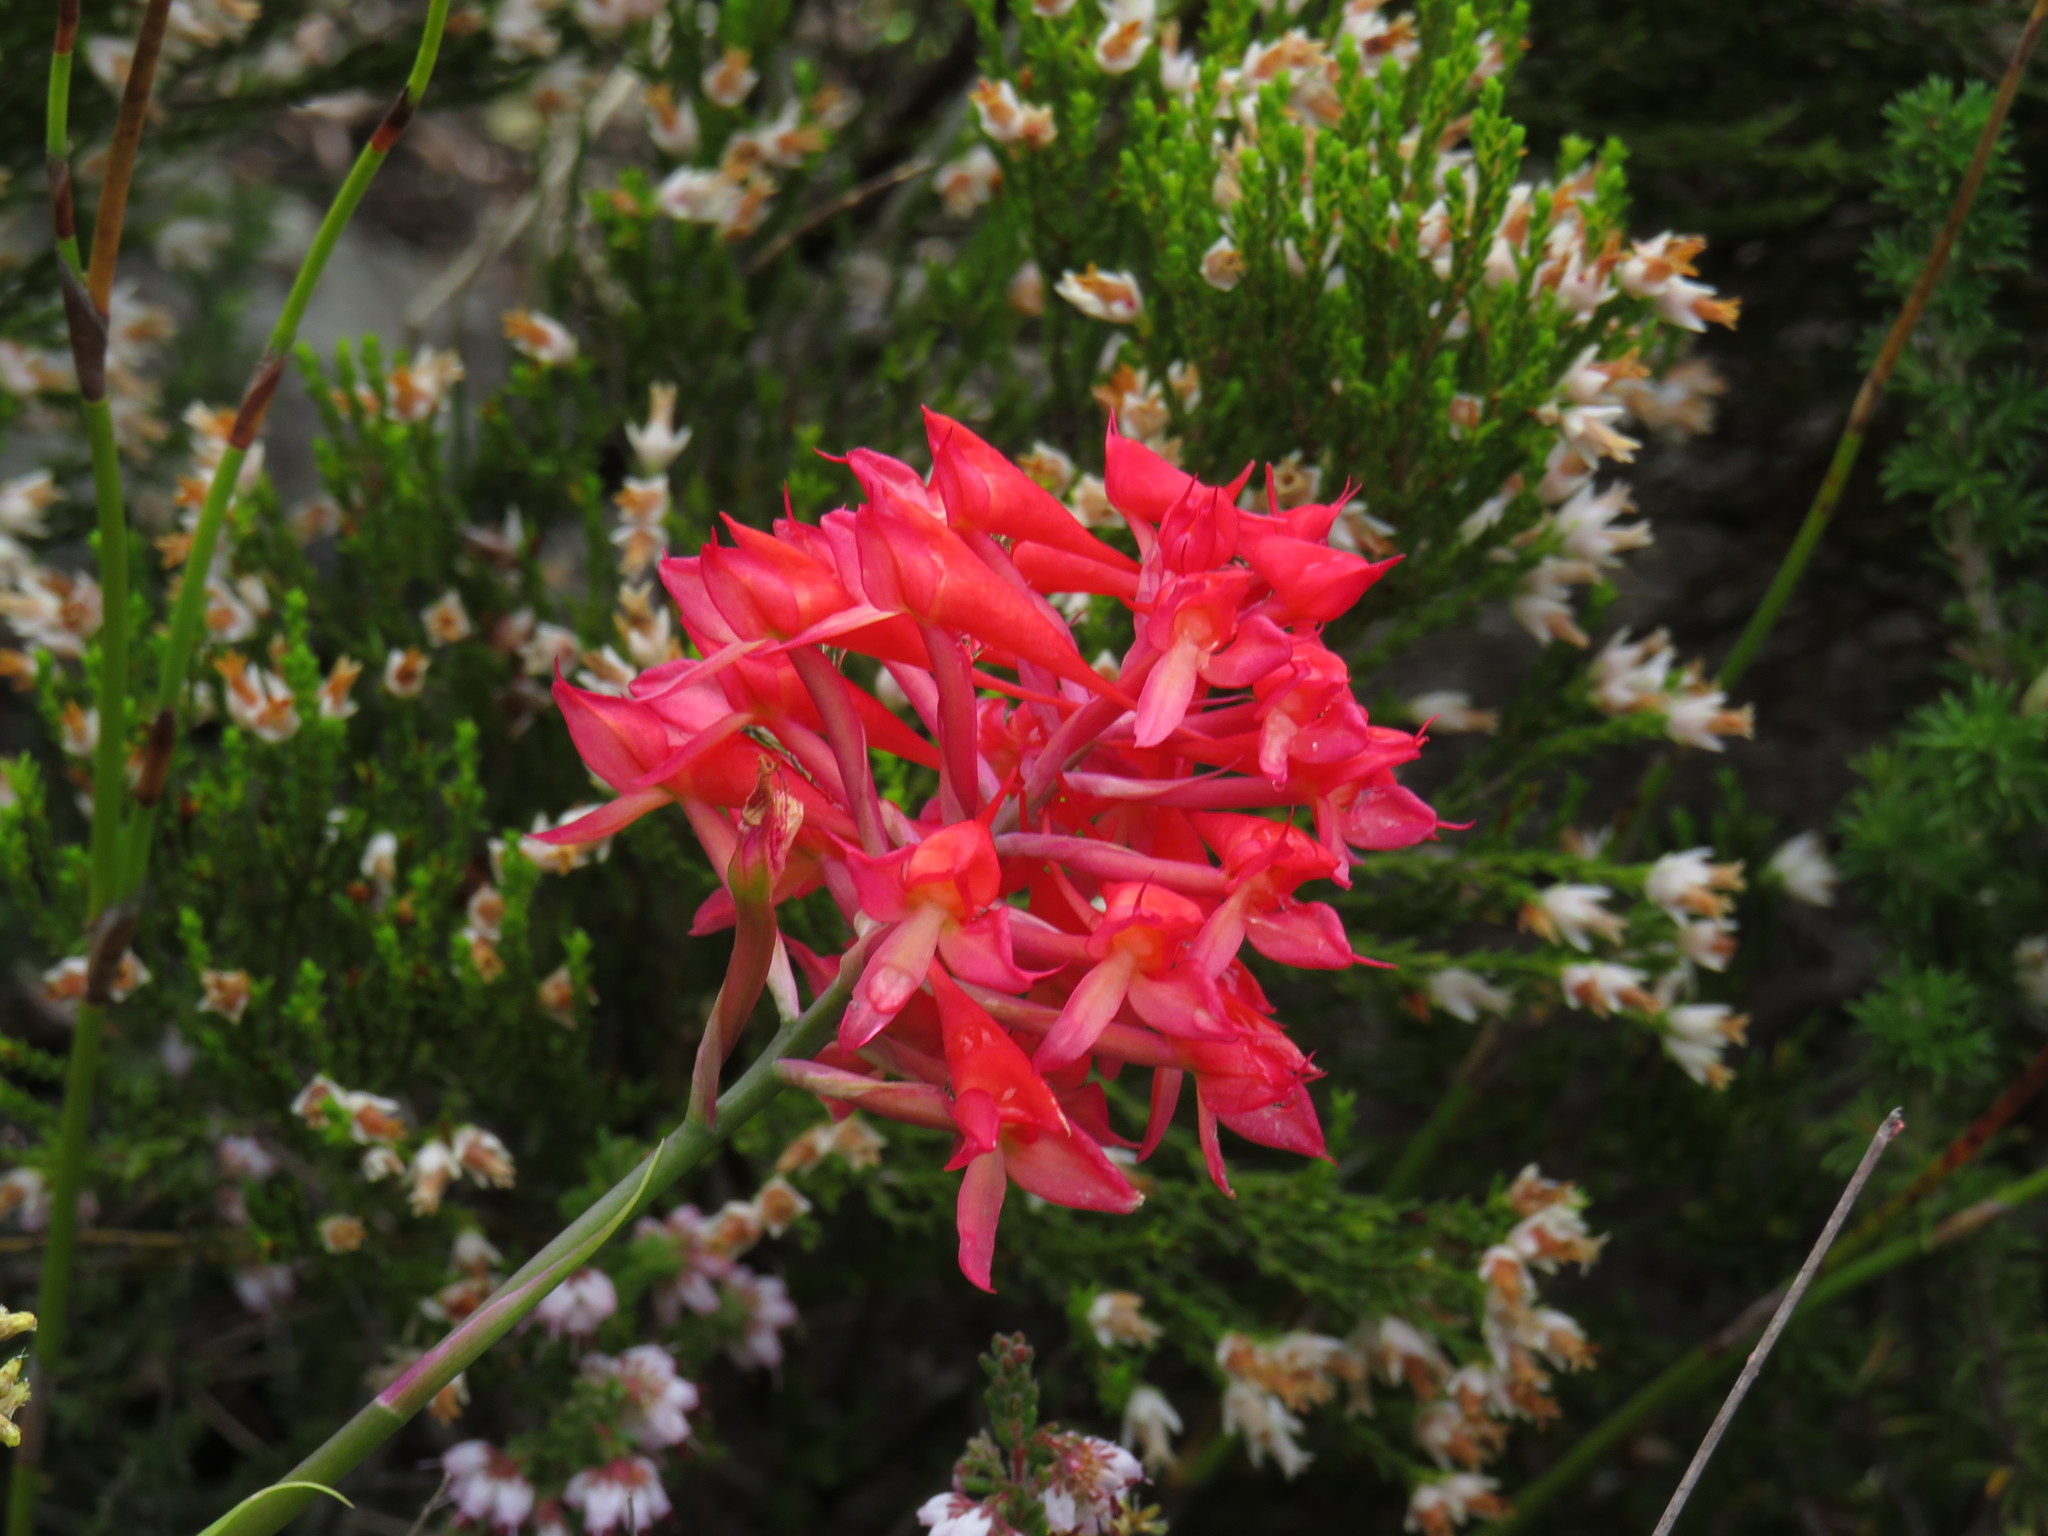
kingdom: Plantae
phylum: Tracheophyta
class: Liliopsida
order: Asparagales
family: Orchidaceae
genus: Disa
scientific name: Disa ferruginea
